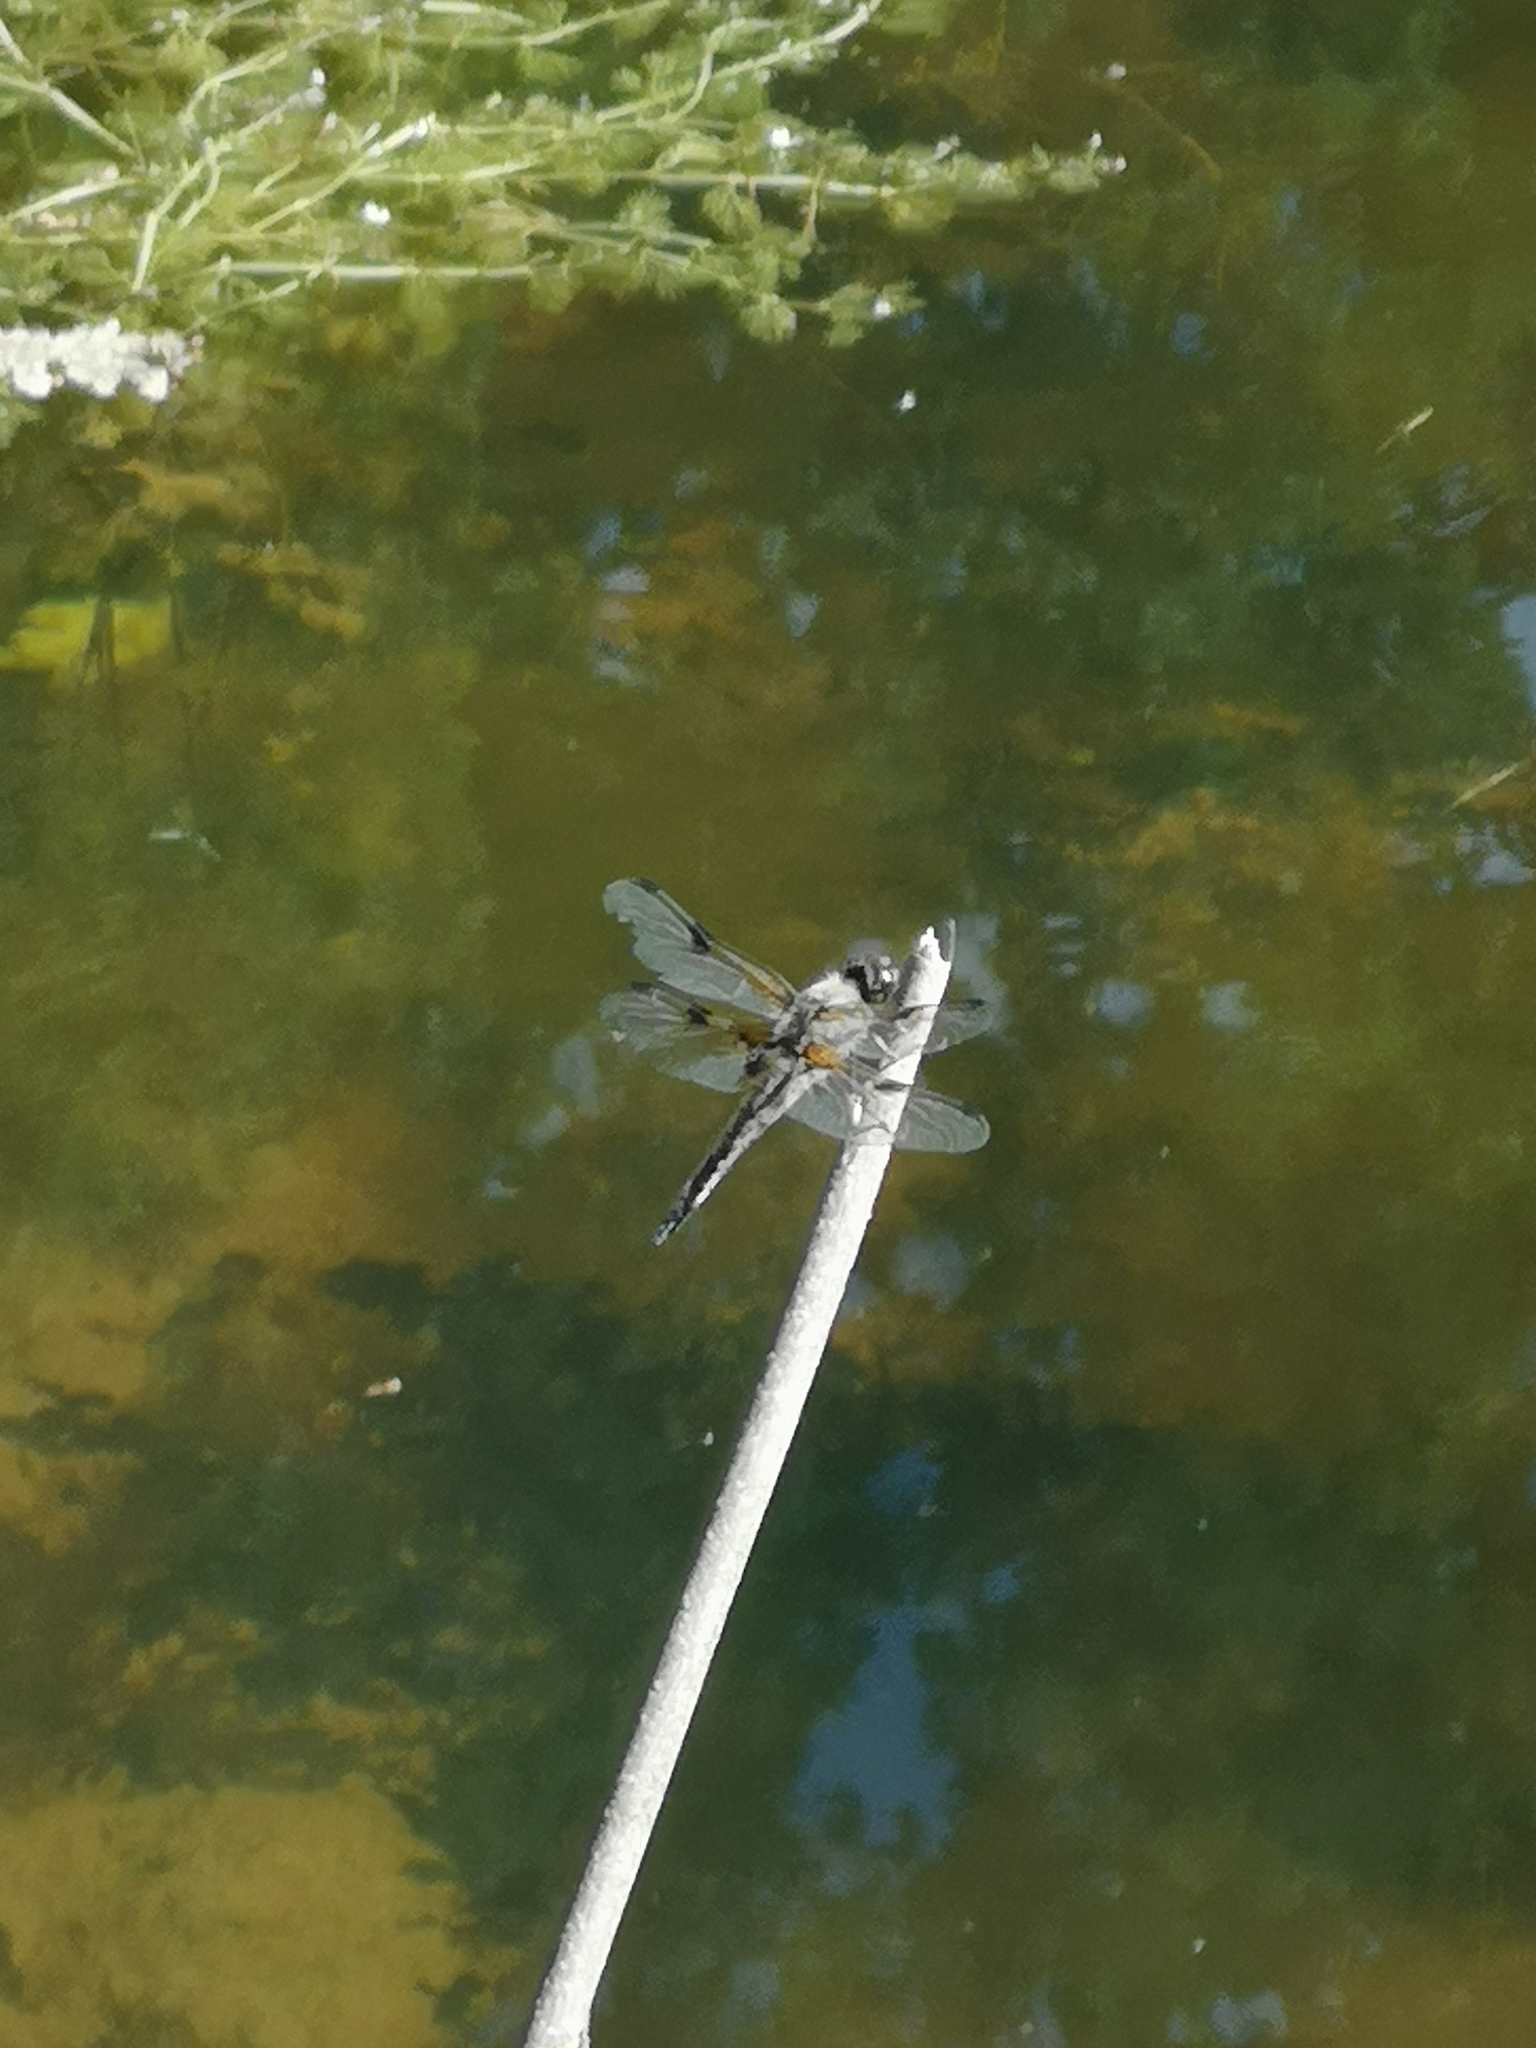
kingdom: Animalia
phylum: Arthropoda
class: Insecta
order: Odonata
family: Libellulidae
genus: Libellula
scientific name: Libellula quadrimaculata
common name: Four-spotted chaser
